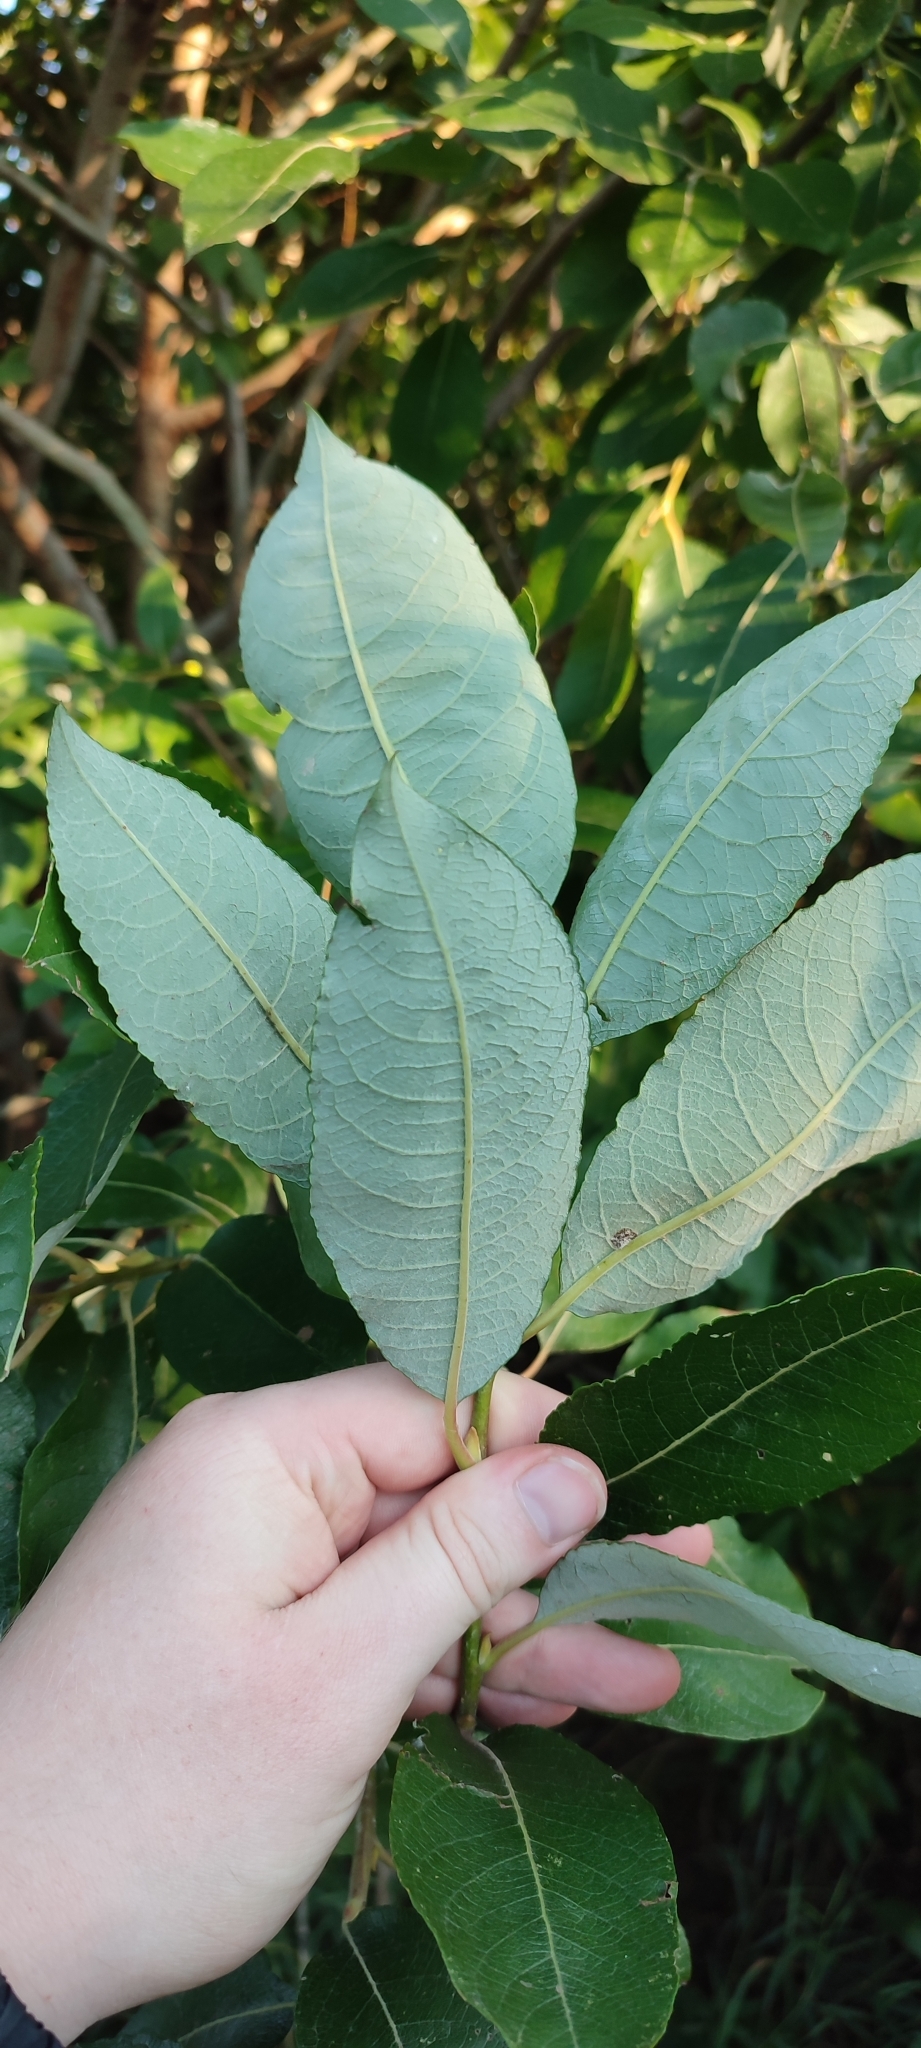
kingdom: Plantae
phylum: Tracheophyta
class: Magnoliopsida
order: Malpighiales
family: Salicaceae
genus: Salix
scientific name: Salix caprea
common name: Goat willow
